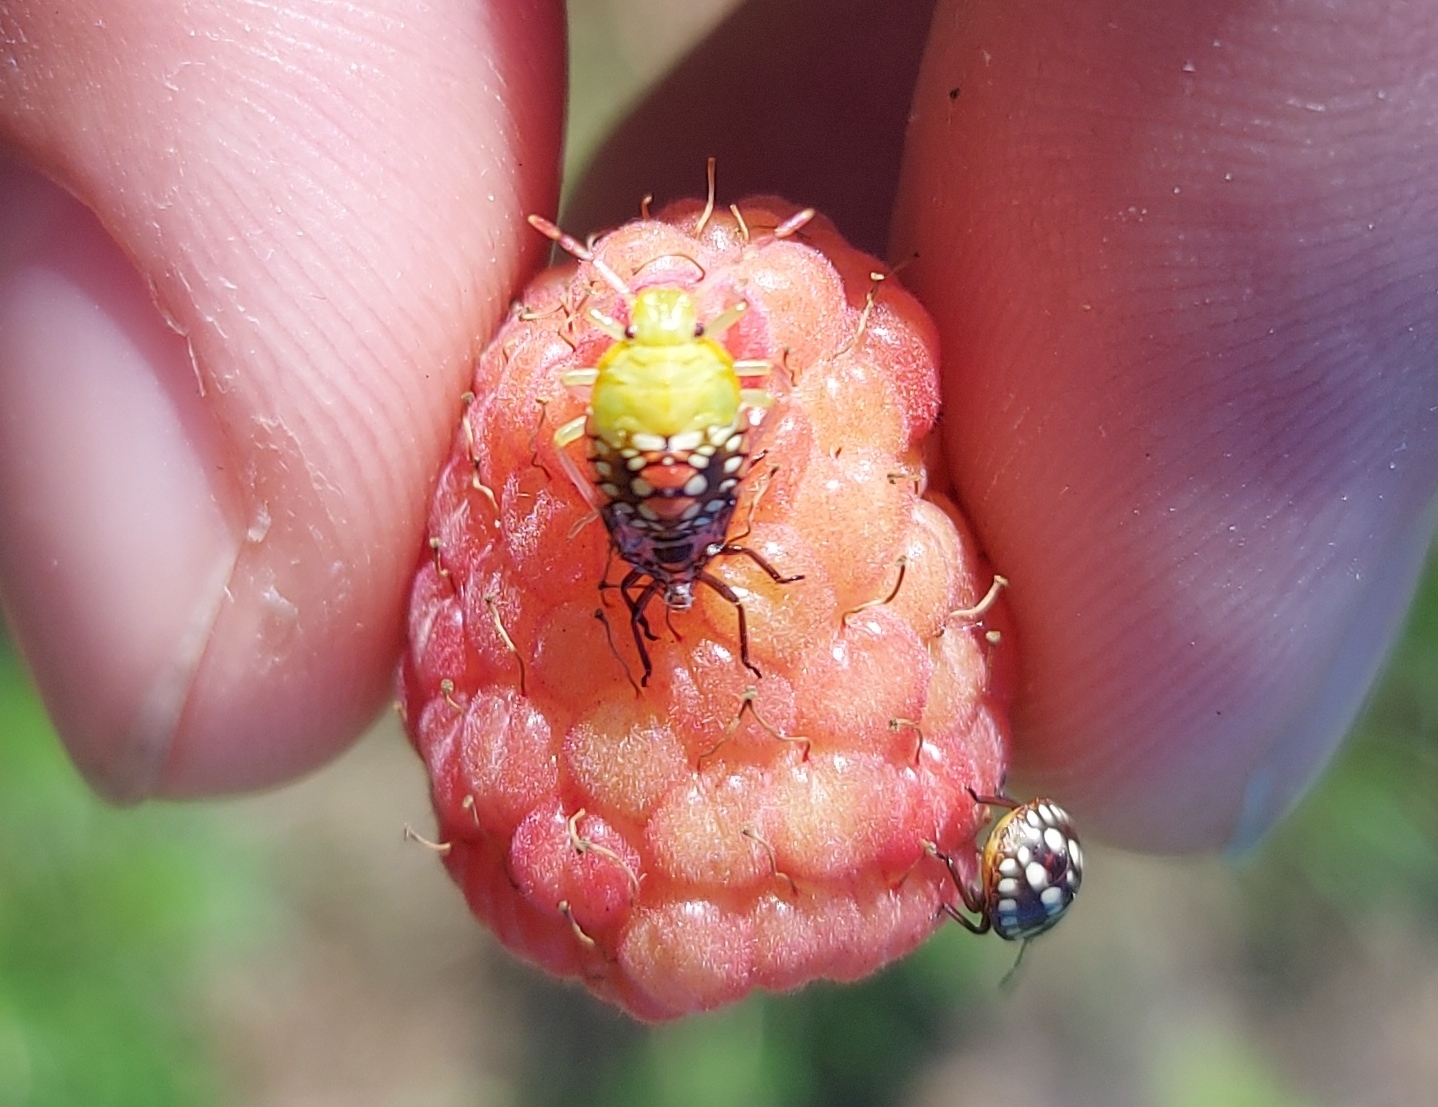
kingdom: Animalia
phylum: Arthropoda
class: Insecta
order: Hemiptera
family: Pentatomidae
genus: Nezara
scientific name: Nezara viridula
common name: Southern green stink bug
